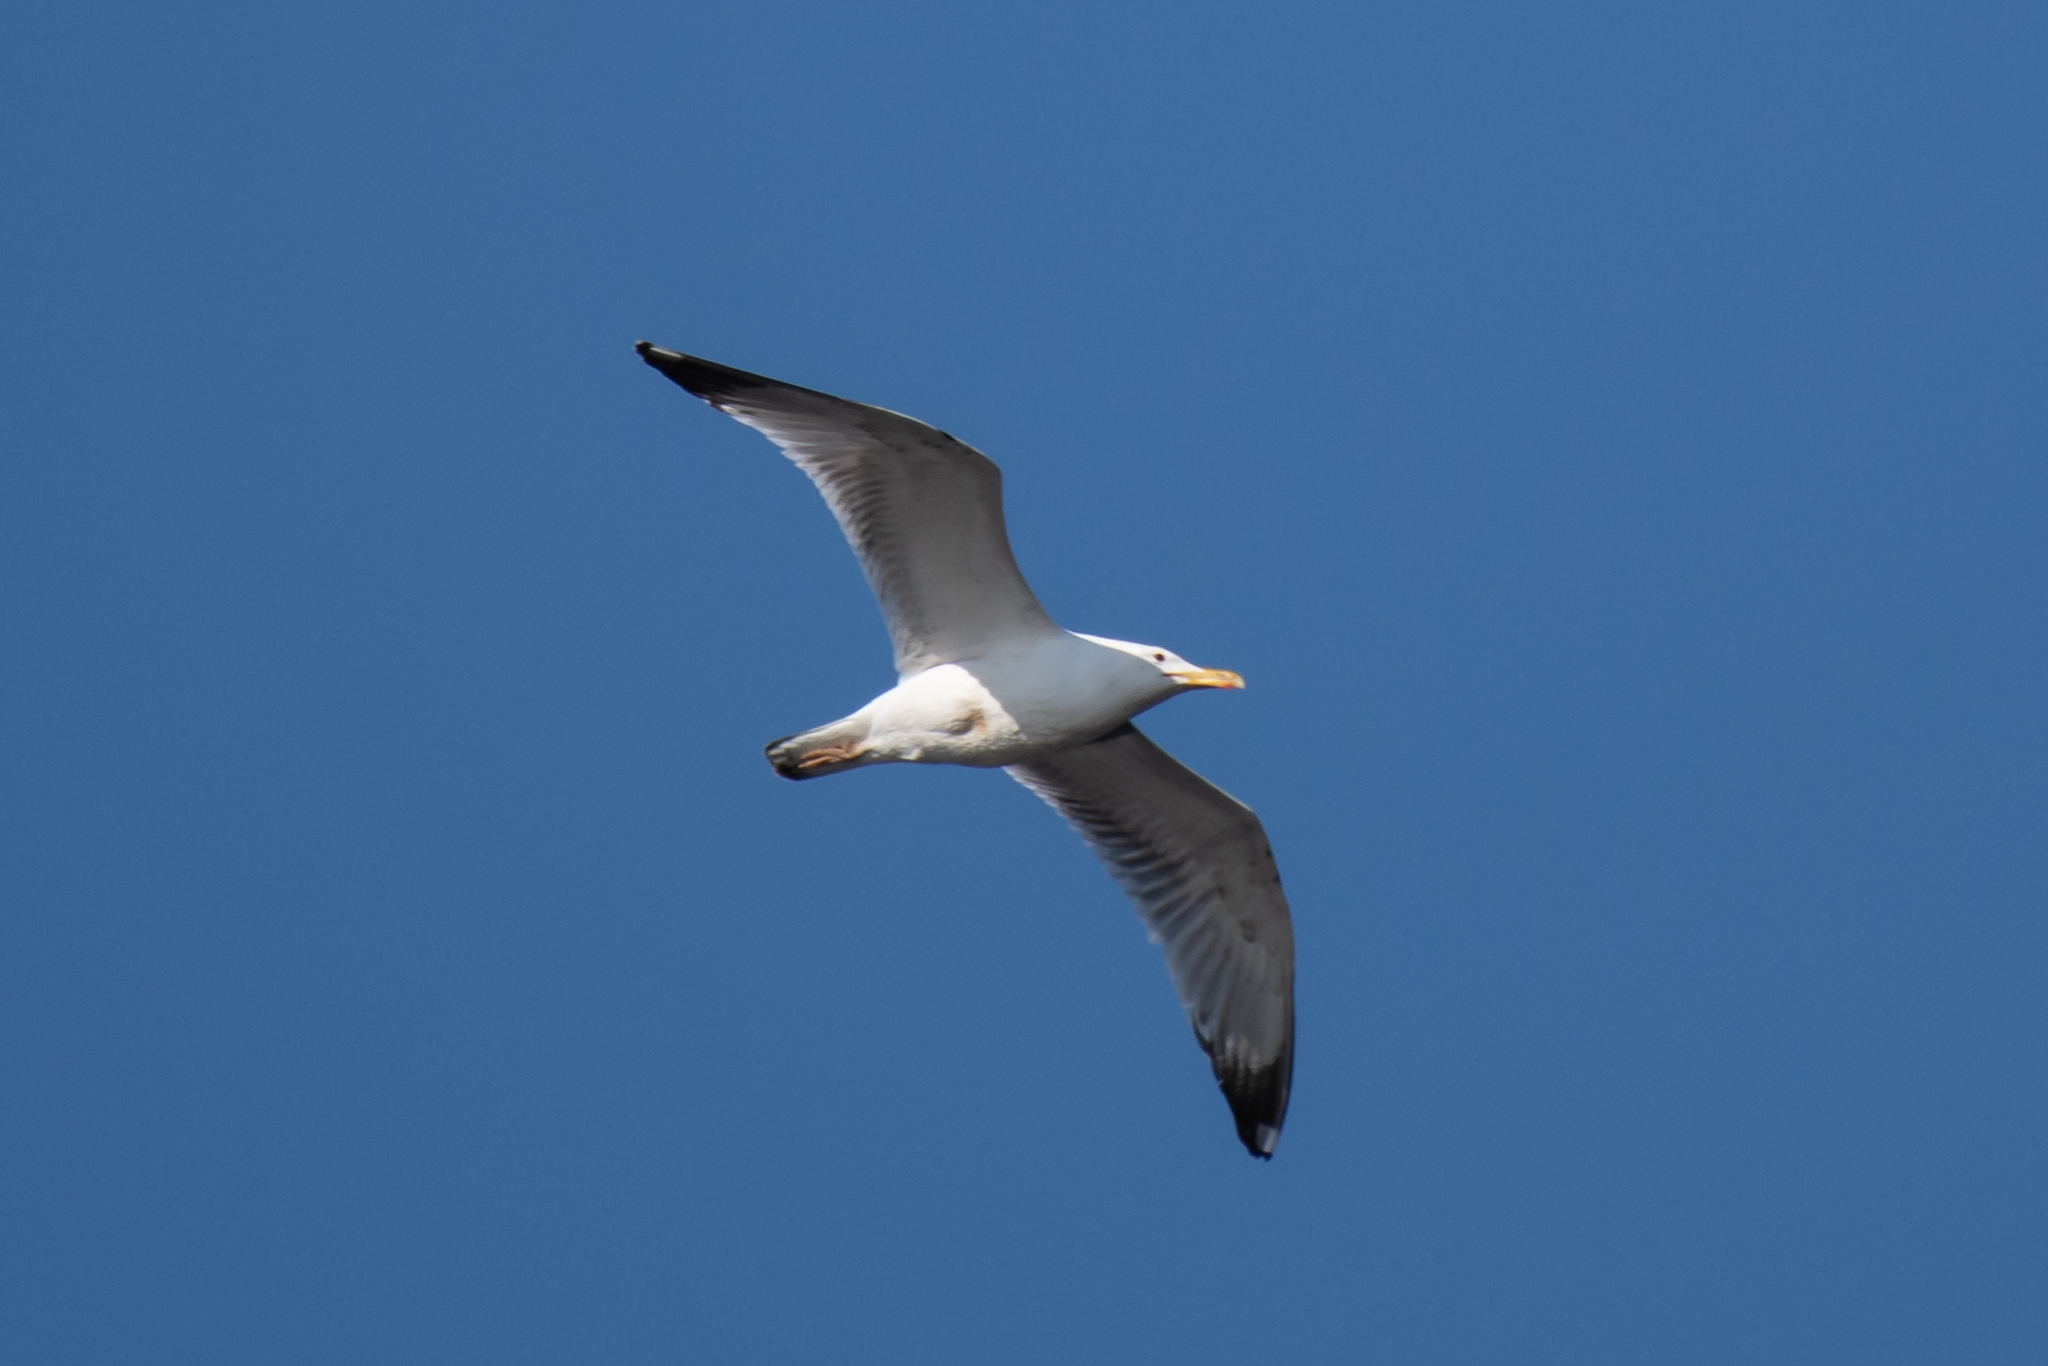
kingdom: Animalia
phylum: Chordata
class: Aves
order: Charadriiformes
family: Laridae
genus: Larus
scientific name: Larus cachinnans
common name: Caspian gull
